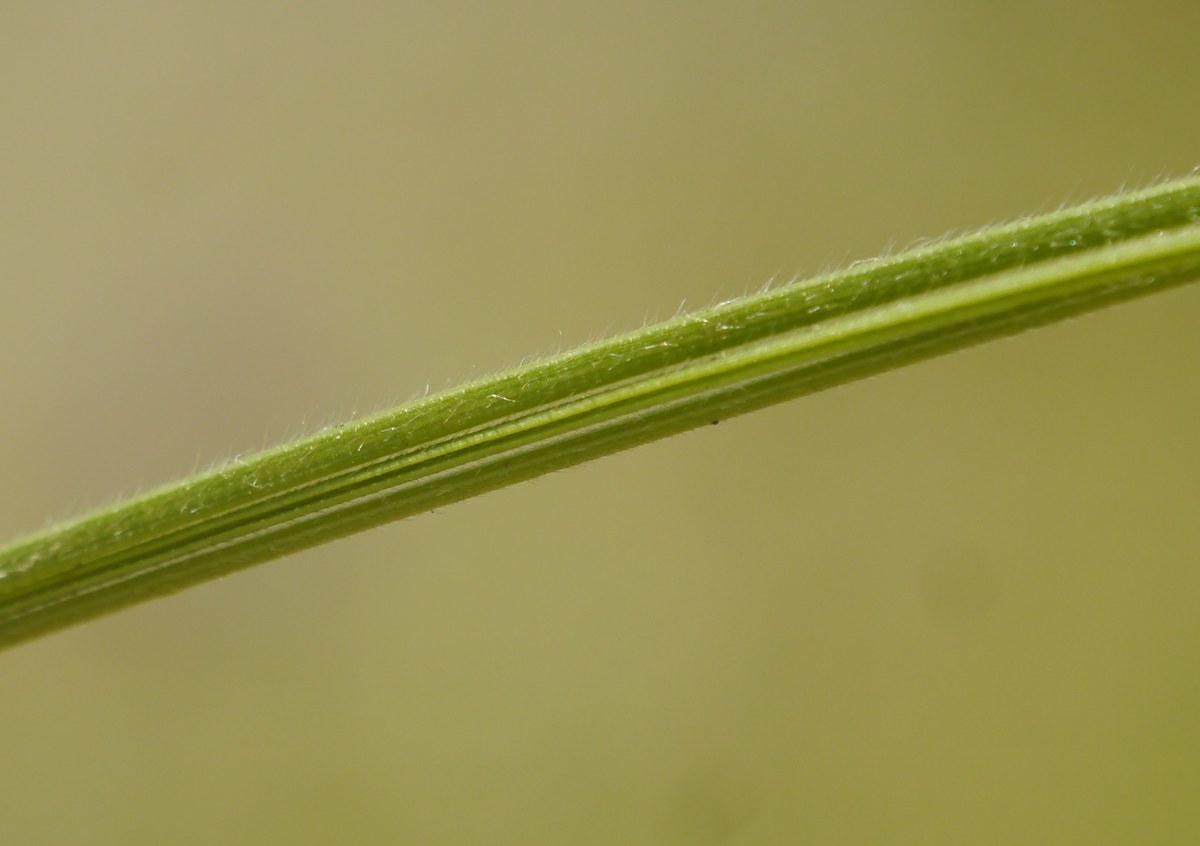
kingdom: Plantae
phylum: Tracheophyta
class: Liliopsida
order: Poales
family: Poaceae
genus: Stipa
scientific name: Stipa dasyphylla
